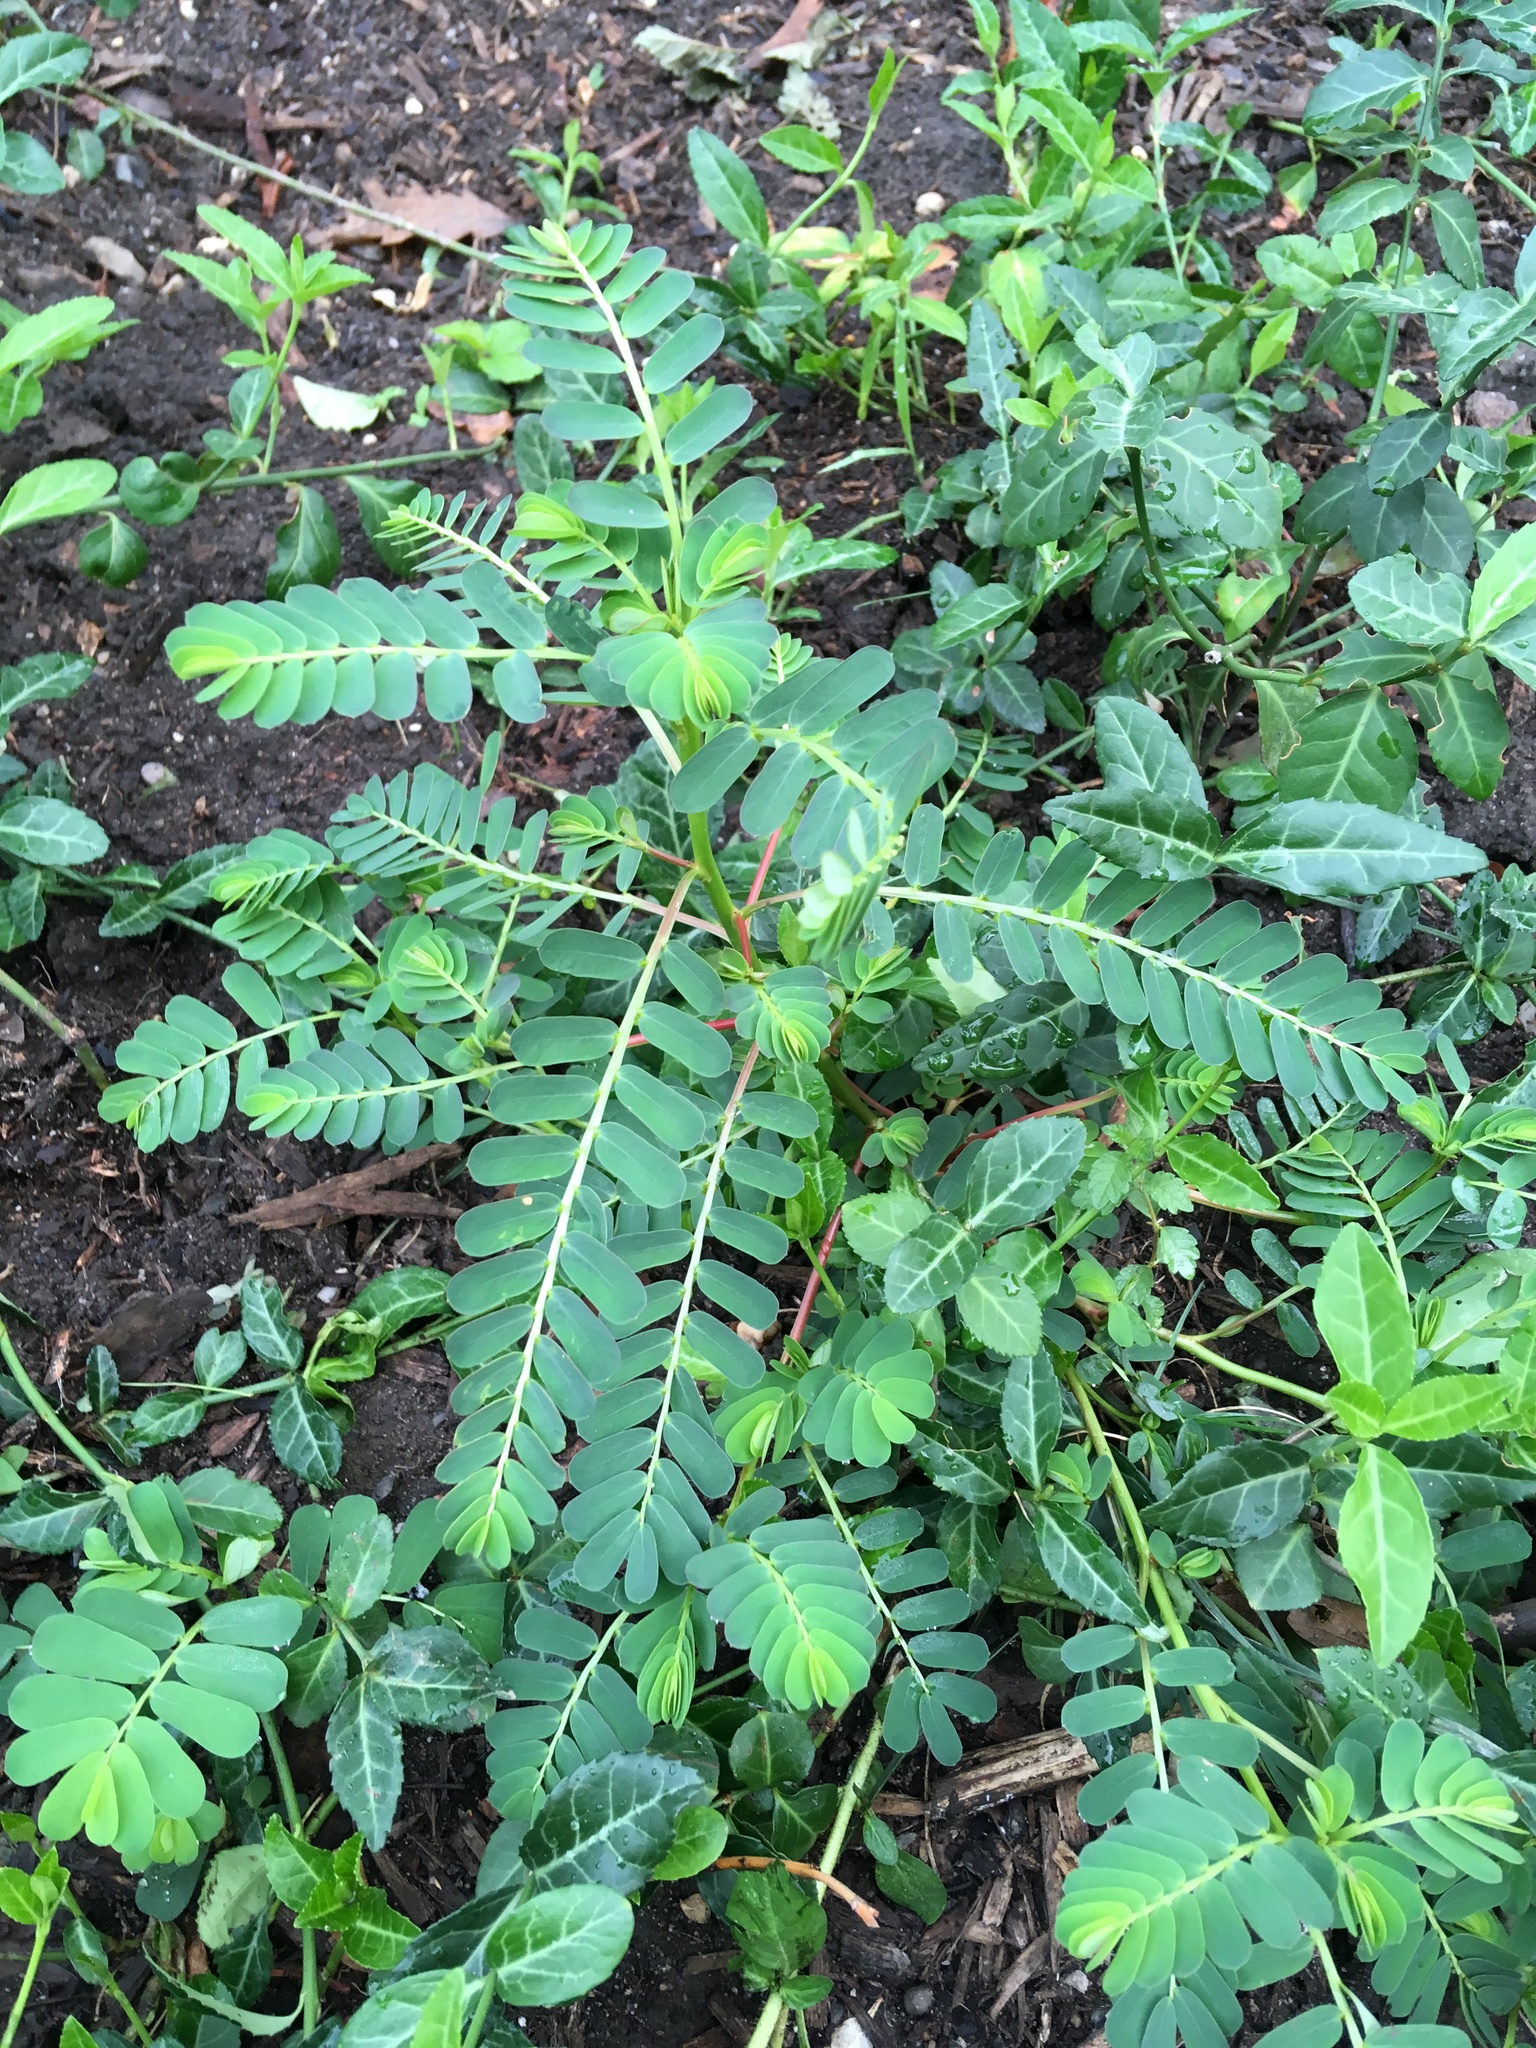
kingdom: Plantae
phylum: Tracheophyta
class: Magnoliopsida
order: Malpighiales
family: Phyllanthaceae
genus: Phyllanthus
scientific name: Phyllanthus urinaria
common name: Chamber bitter
